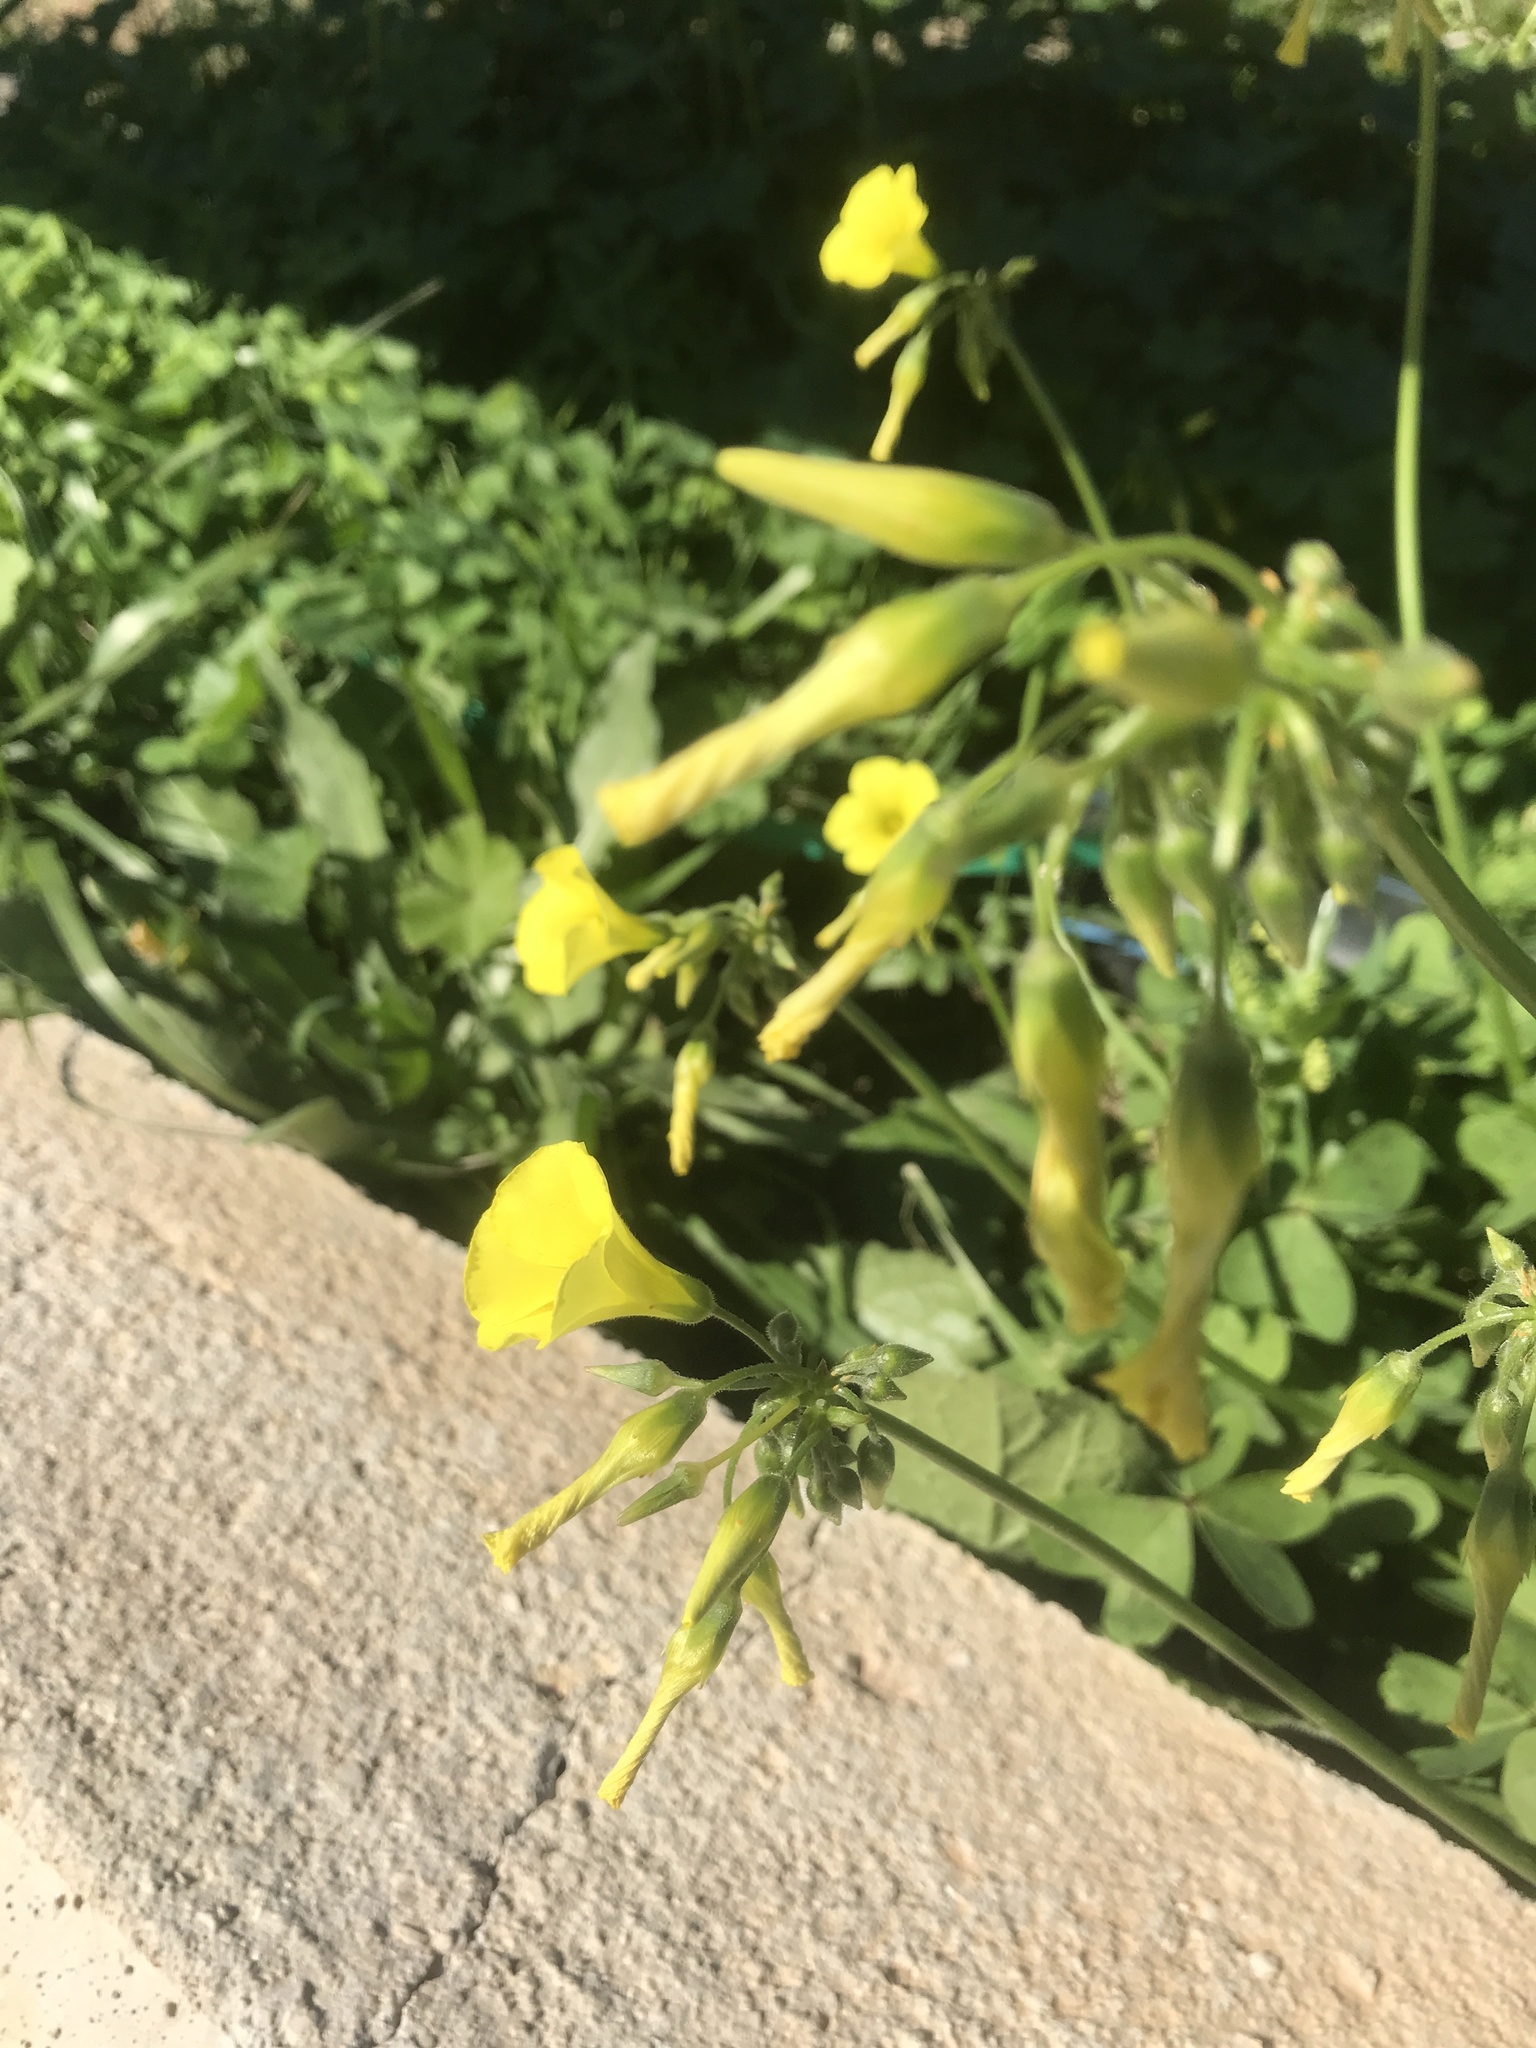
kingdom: Plantae
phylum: Tracheophyta
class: Magnoliopsida
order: Oxalidales
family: Oxalidaceae
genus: Oxalis
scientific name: Oxalis pes-caprae
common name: Bermuda-buttercup
